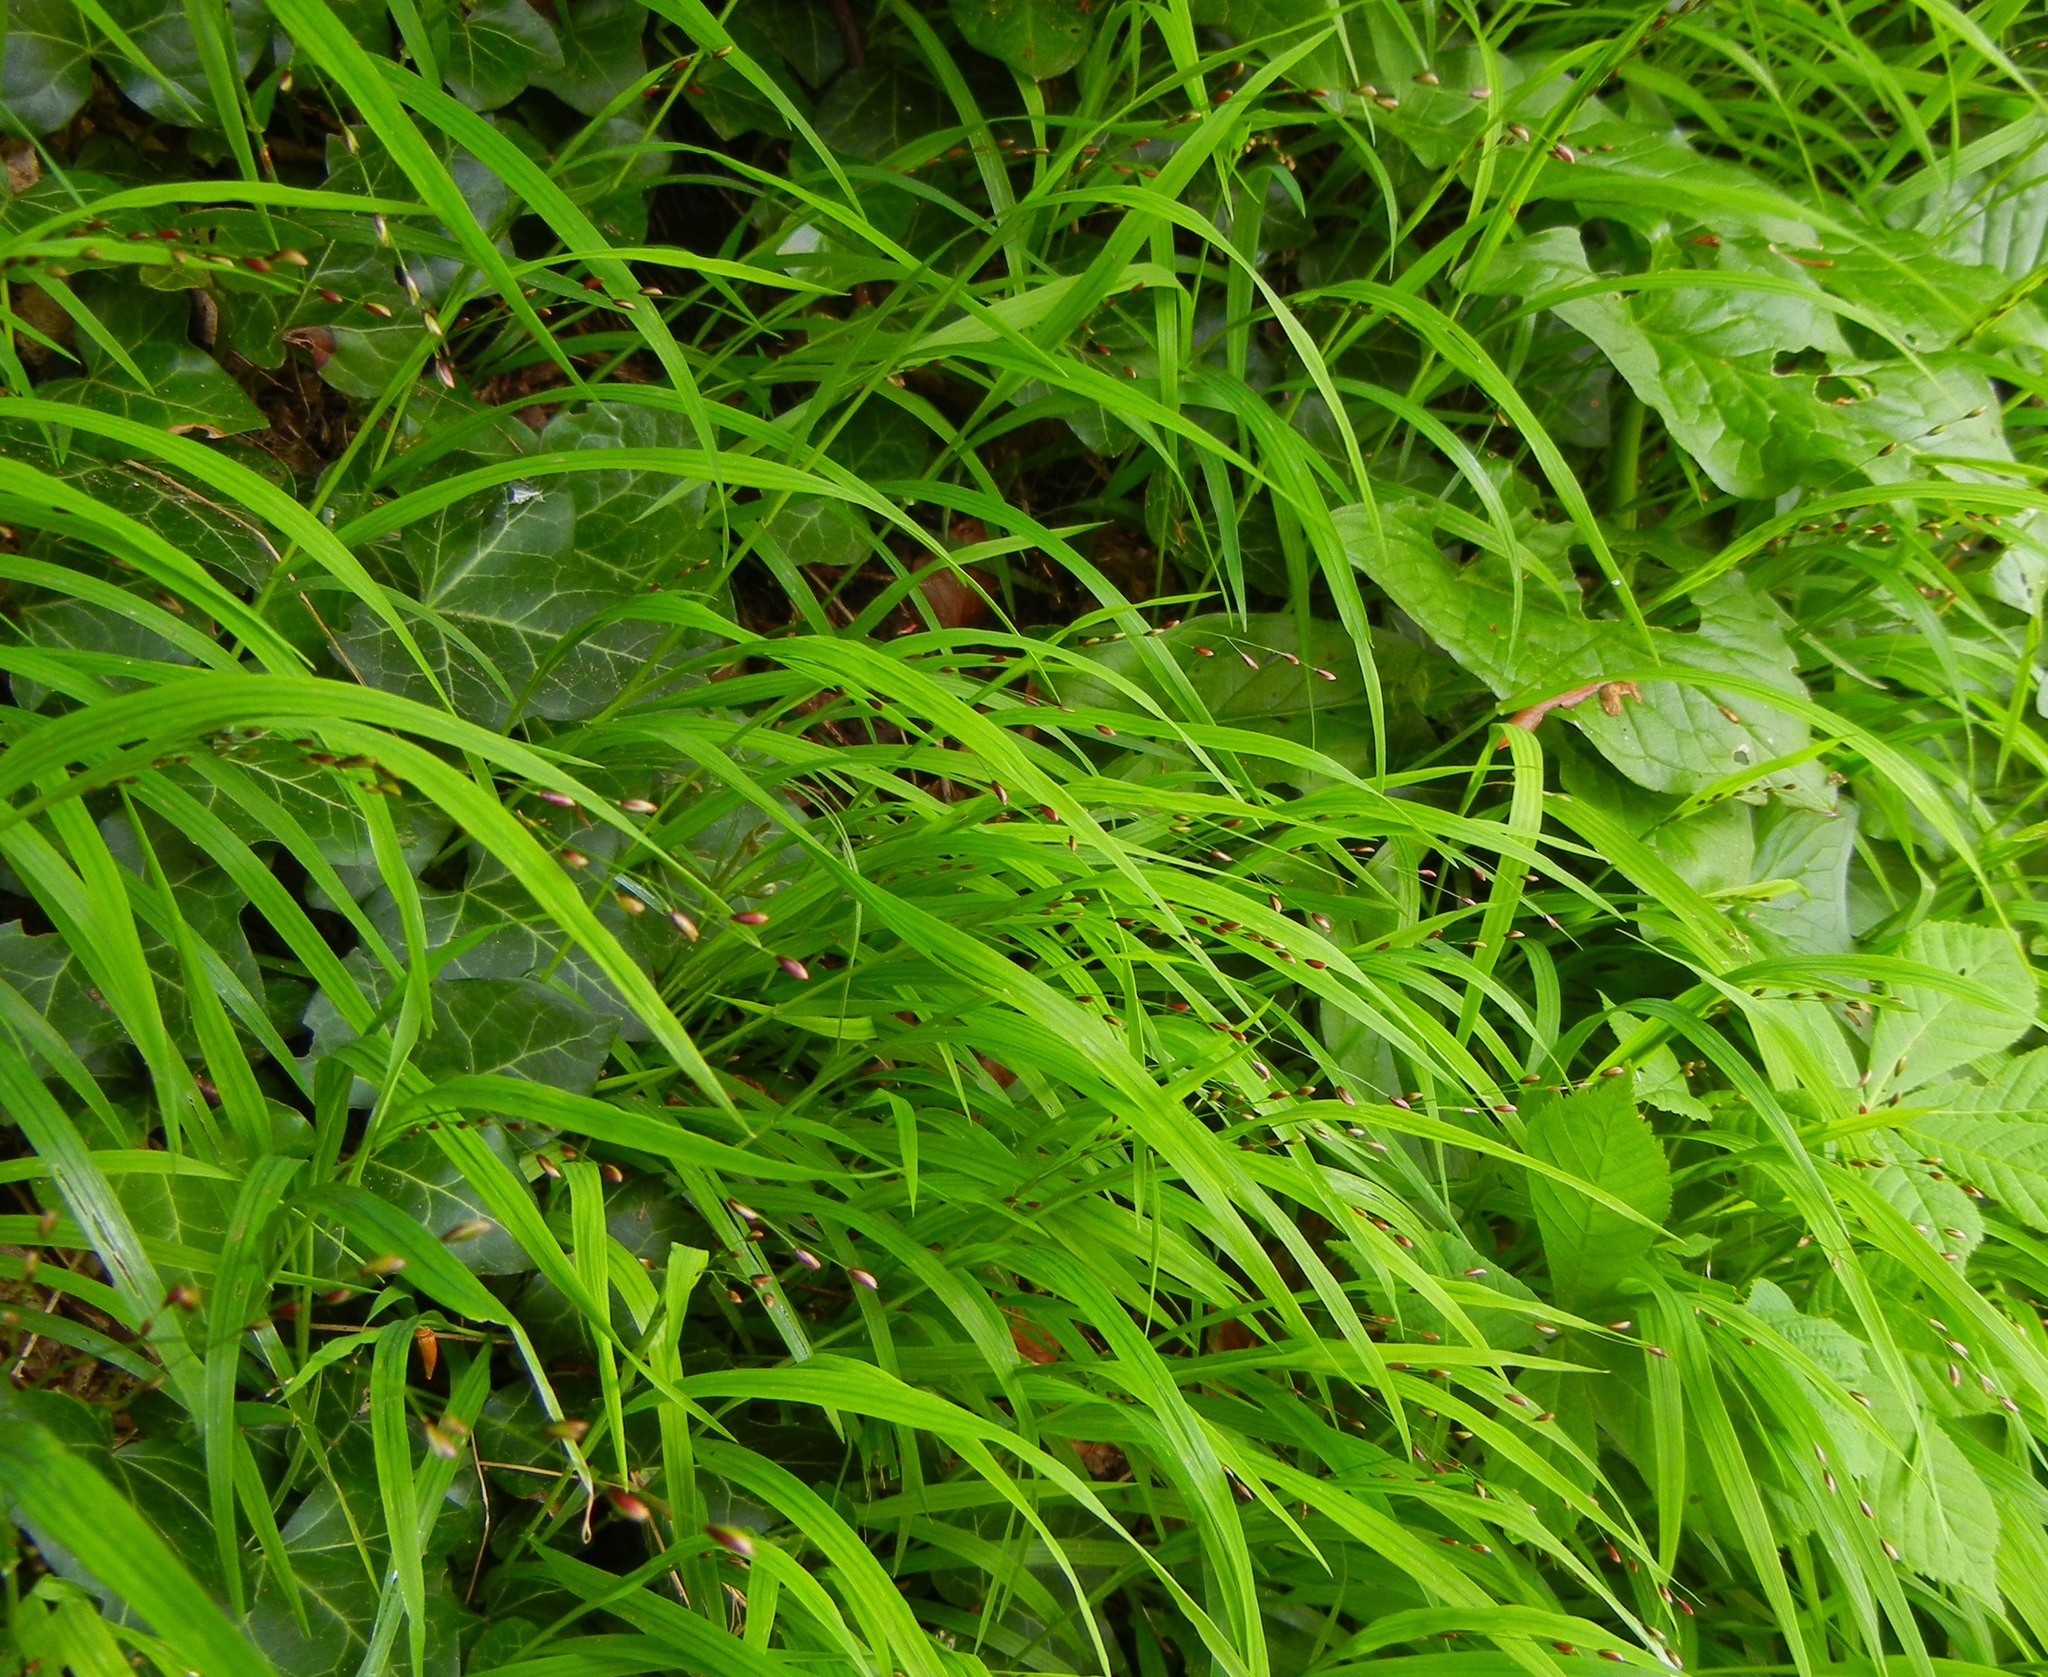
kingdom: Plantae
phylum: Tracheophyta
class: Liliopsida
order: Poales
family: Poaceae
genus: Melica
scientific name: Melica uniflora
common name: Wood melick
